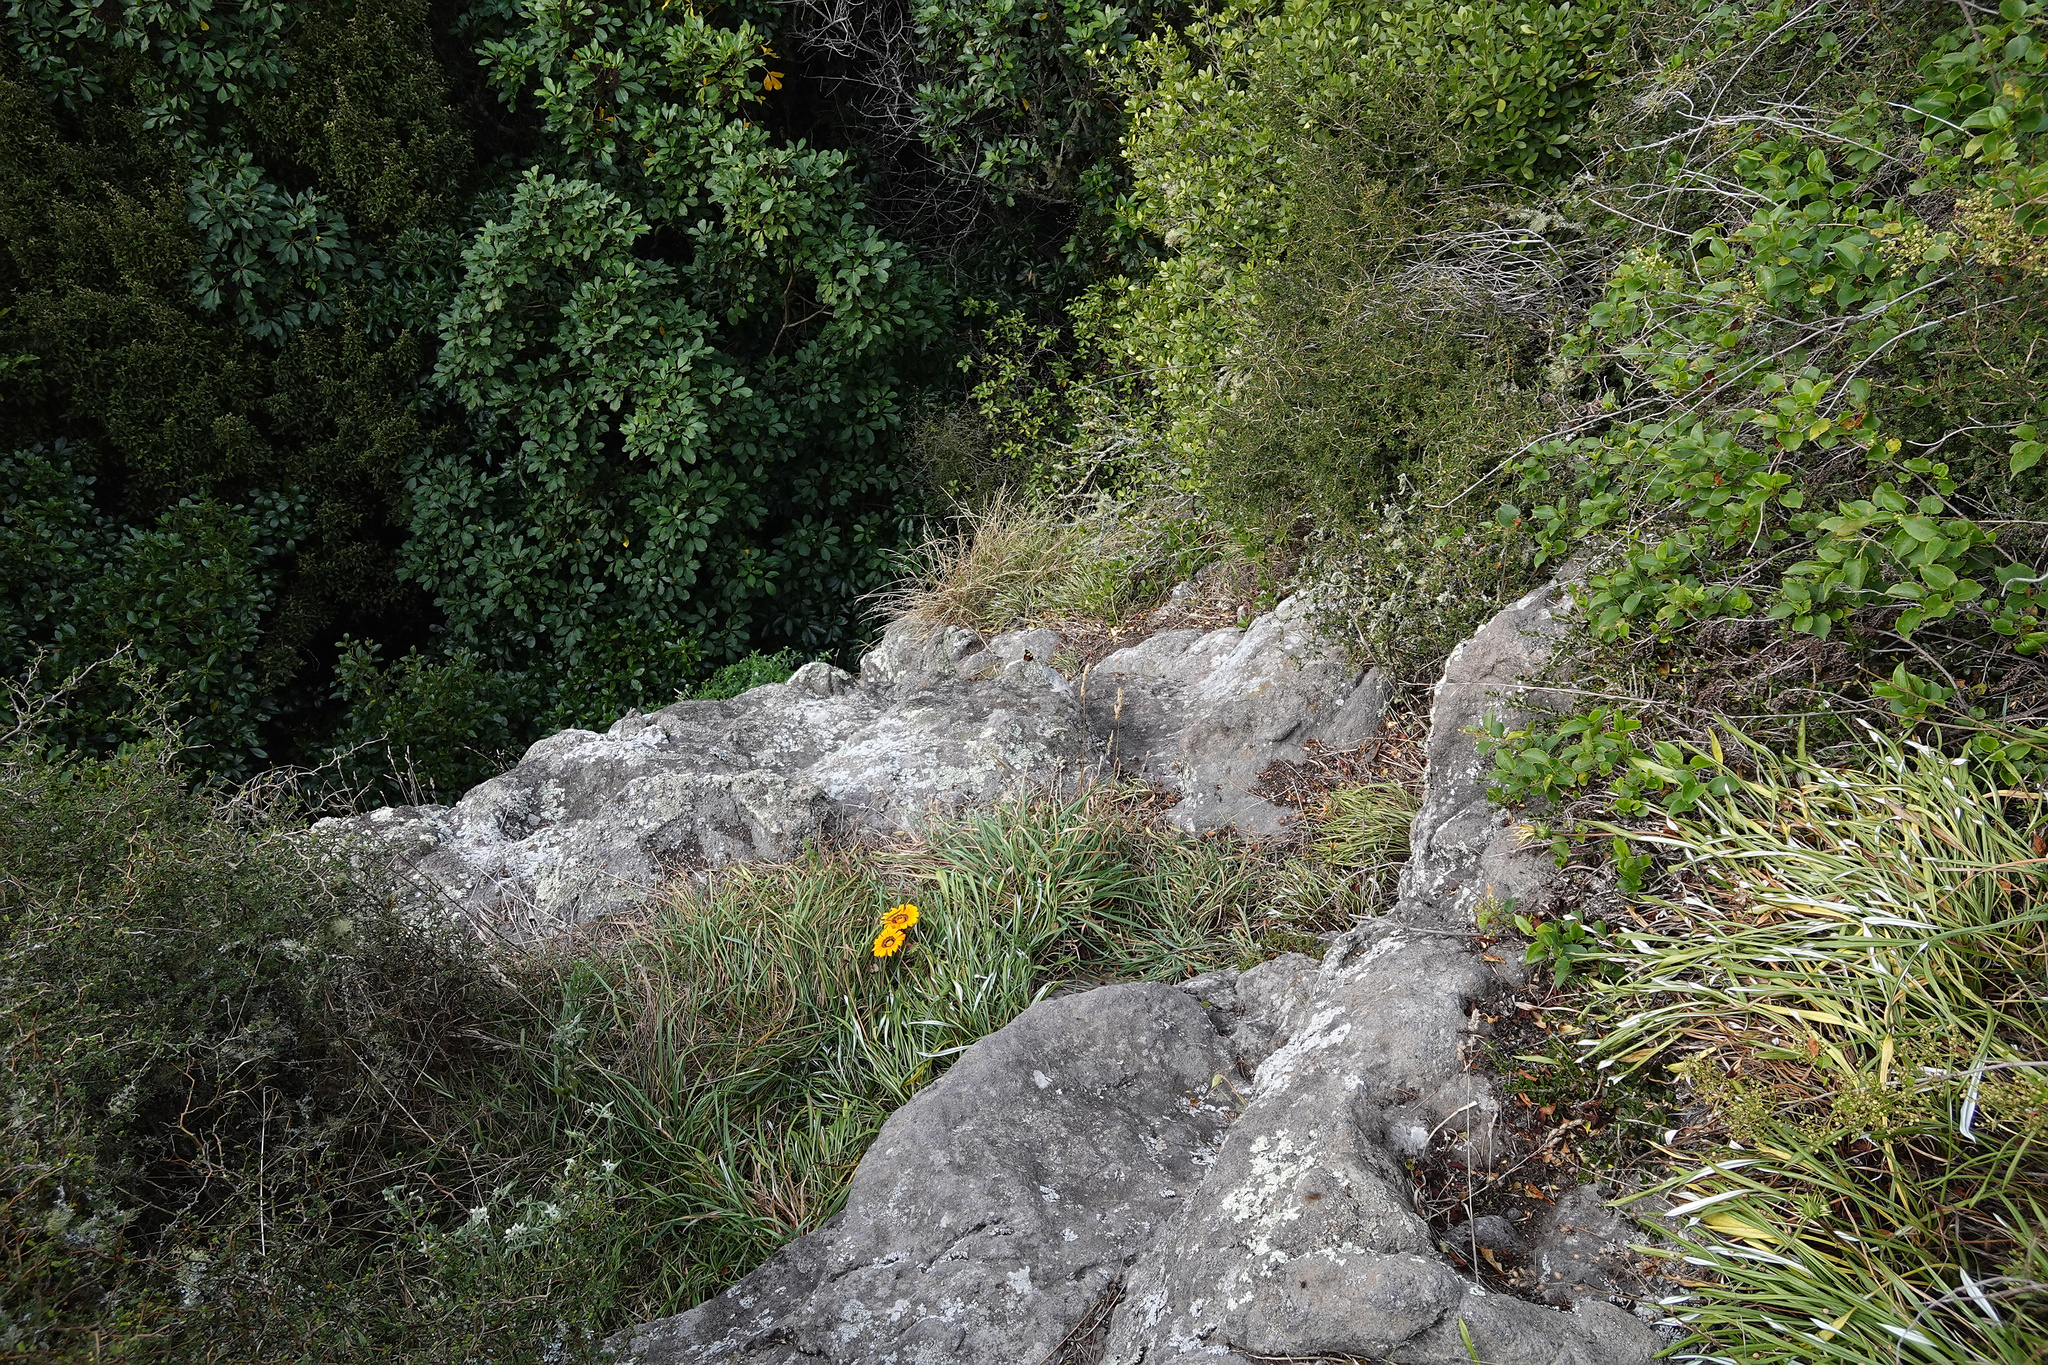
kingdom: Plantae
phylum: Tracheophyta
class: Magnoliopsida
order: Asterales
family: Asteraceae
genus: Gazania
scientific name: Gazania splendens
